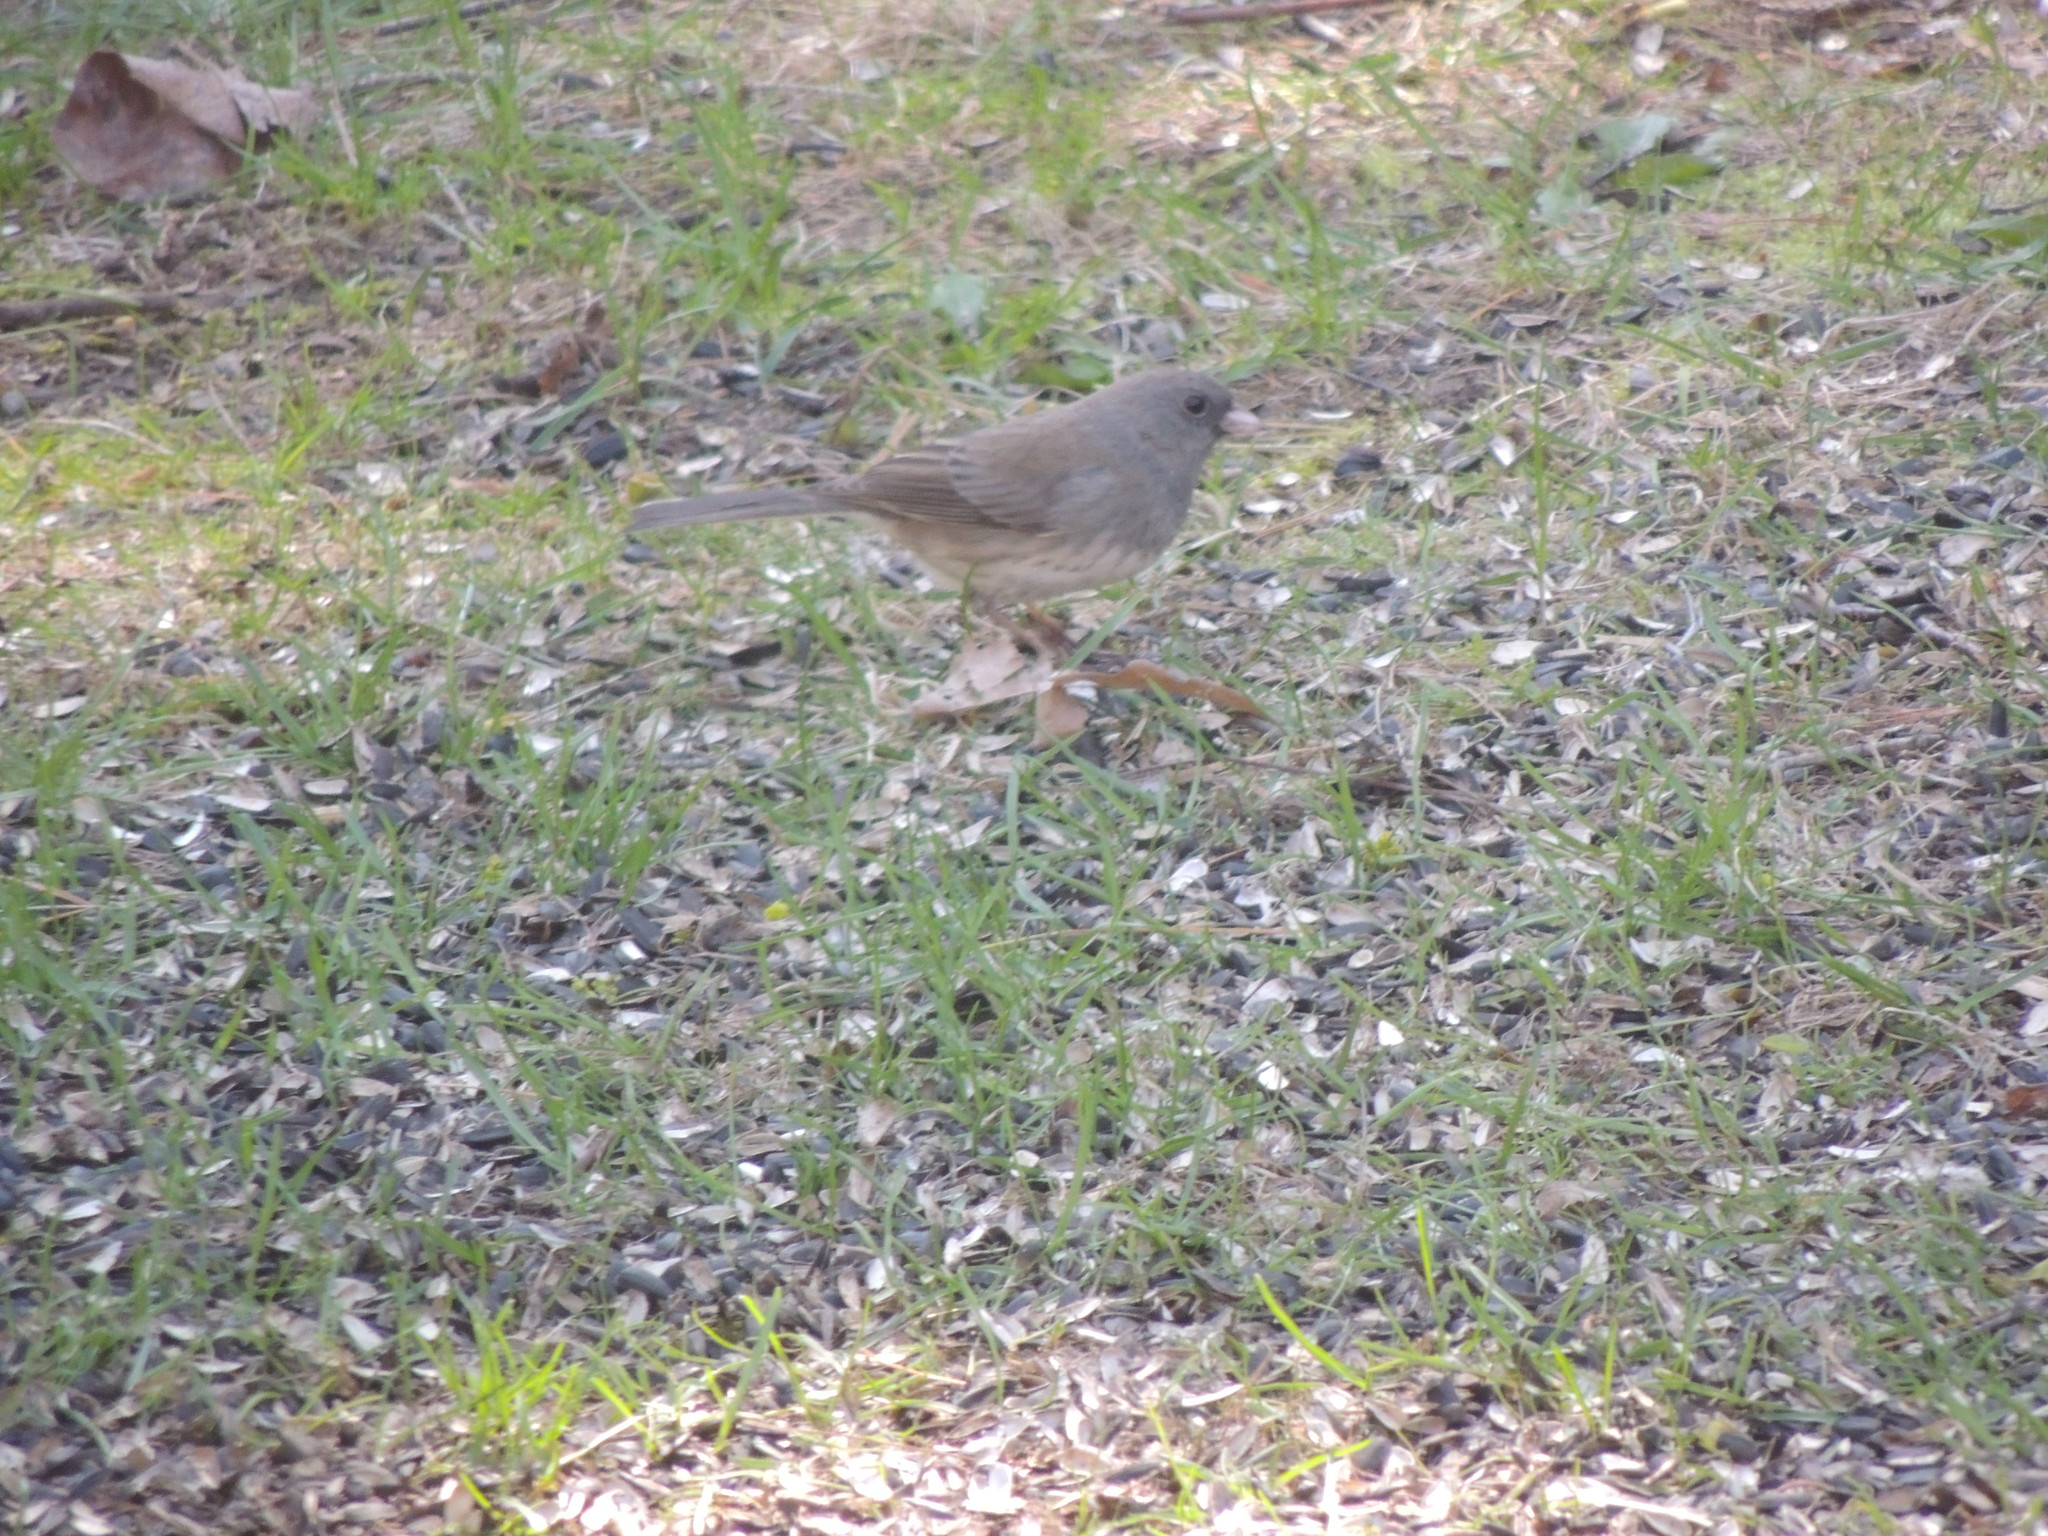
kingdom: Animalia
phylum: Chordata
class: Aves
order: Passeriformes
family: Passerellidae
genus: Junco
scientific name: Junco hyemalis
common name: Dark-eyed junco
